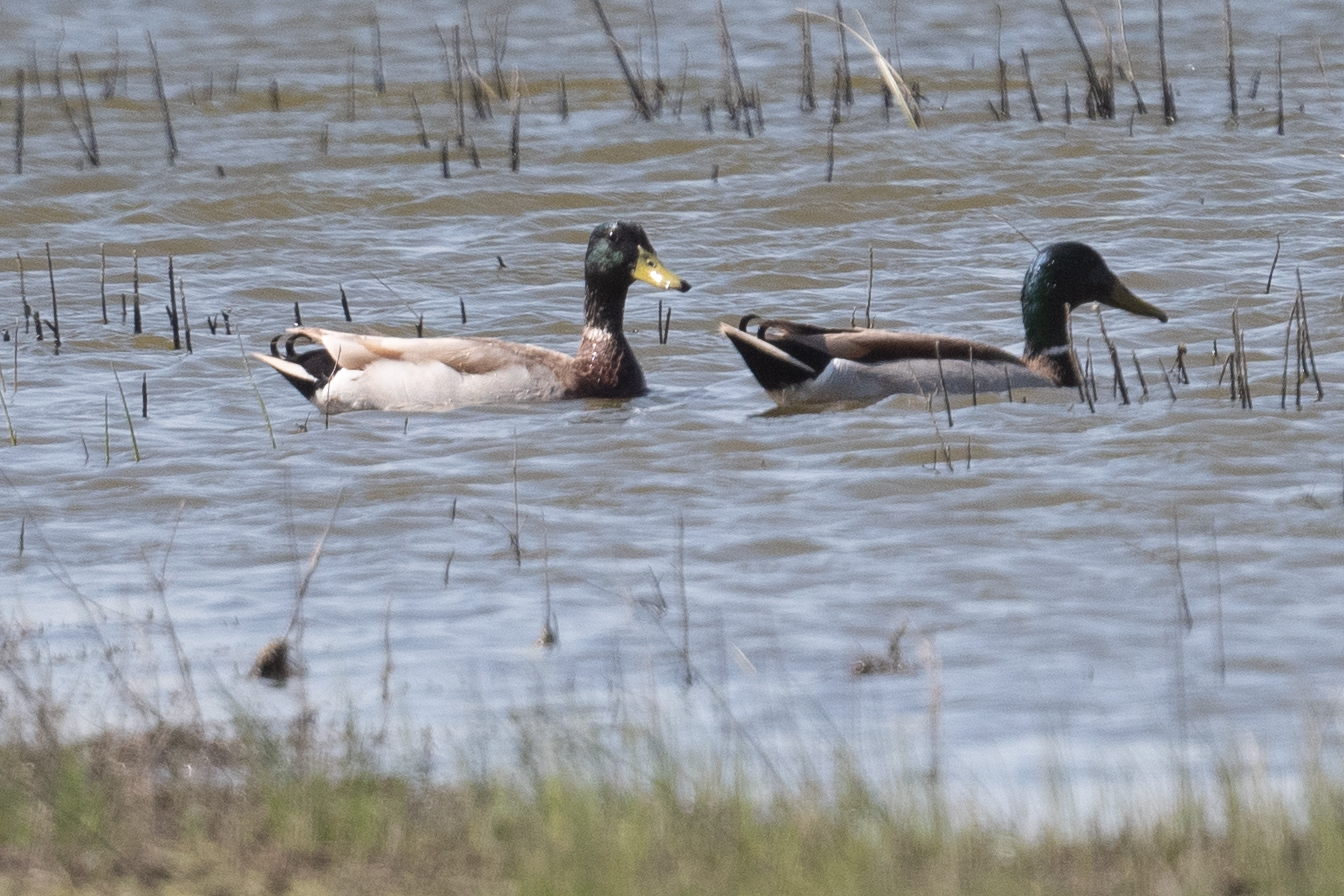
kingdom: Animalia
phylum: Chordata
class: Aves
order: Anseriformes
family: Anatidae
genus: Anas
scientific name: Anas platyrhynchos
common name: Mallard
